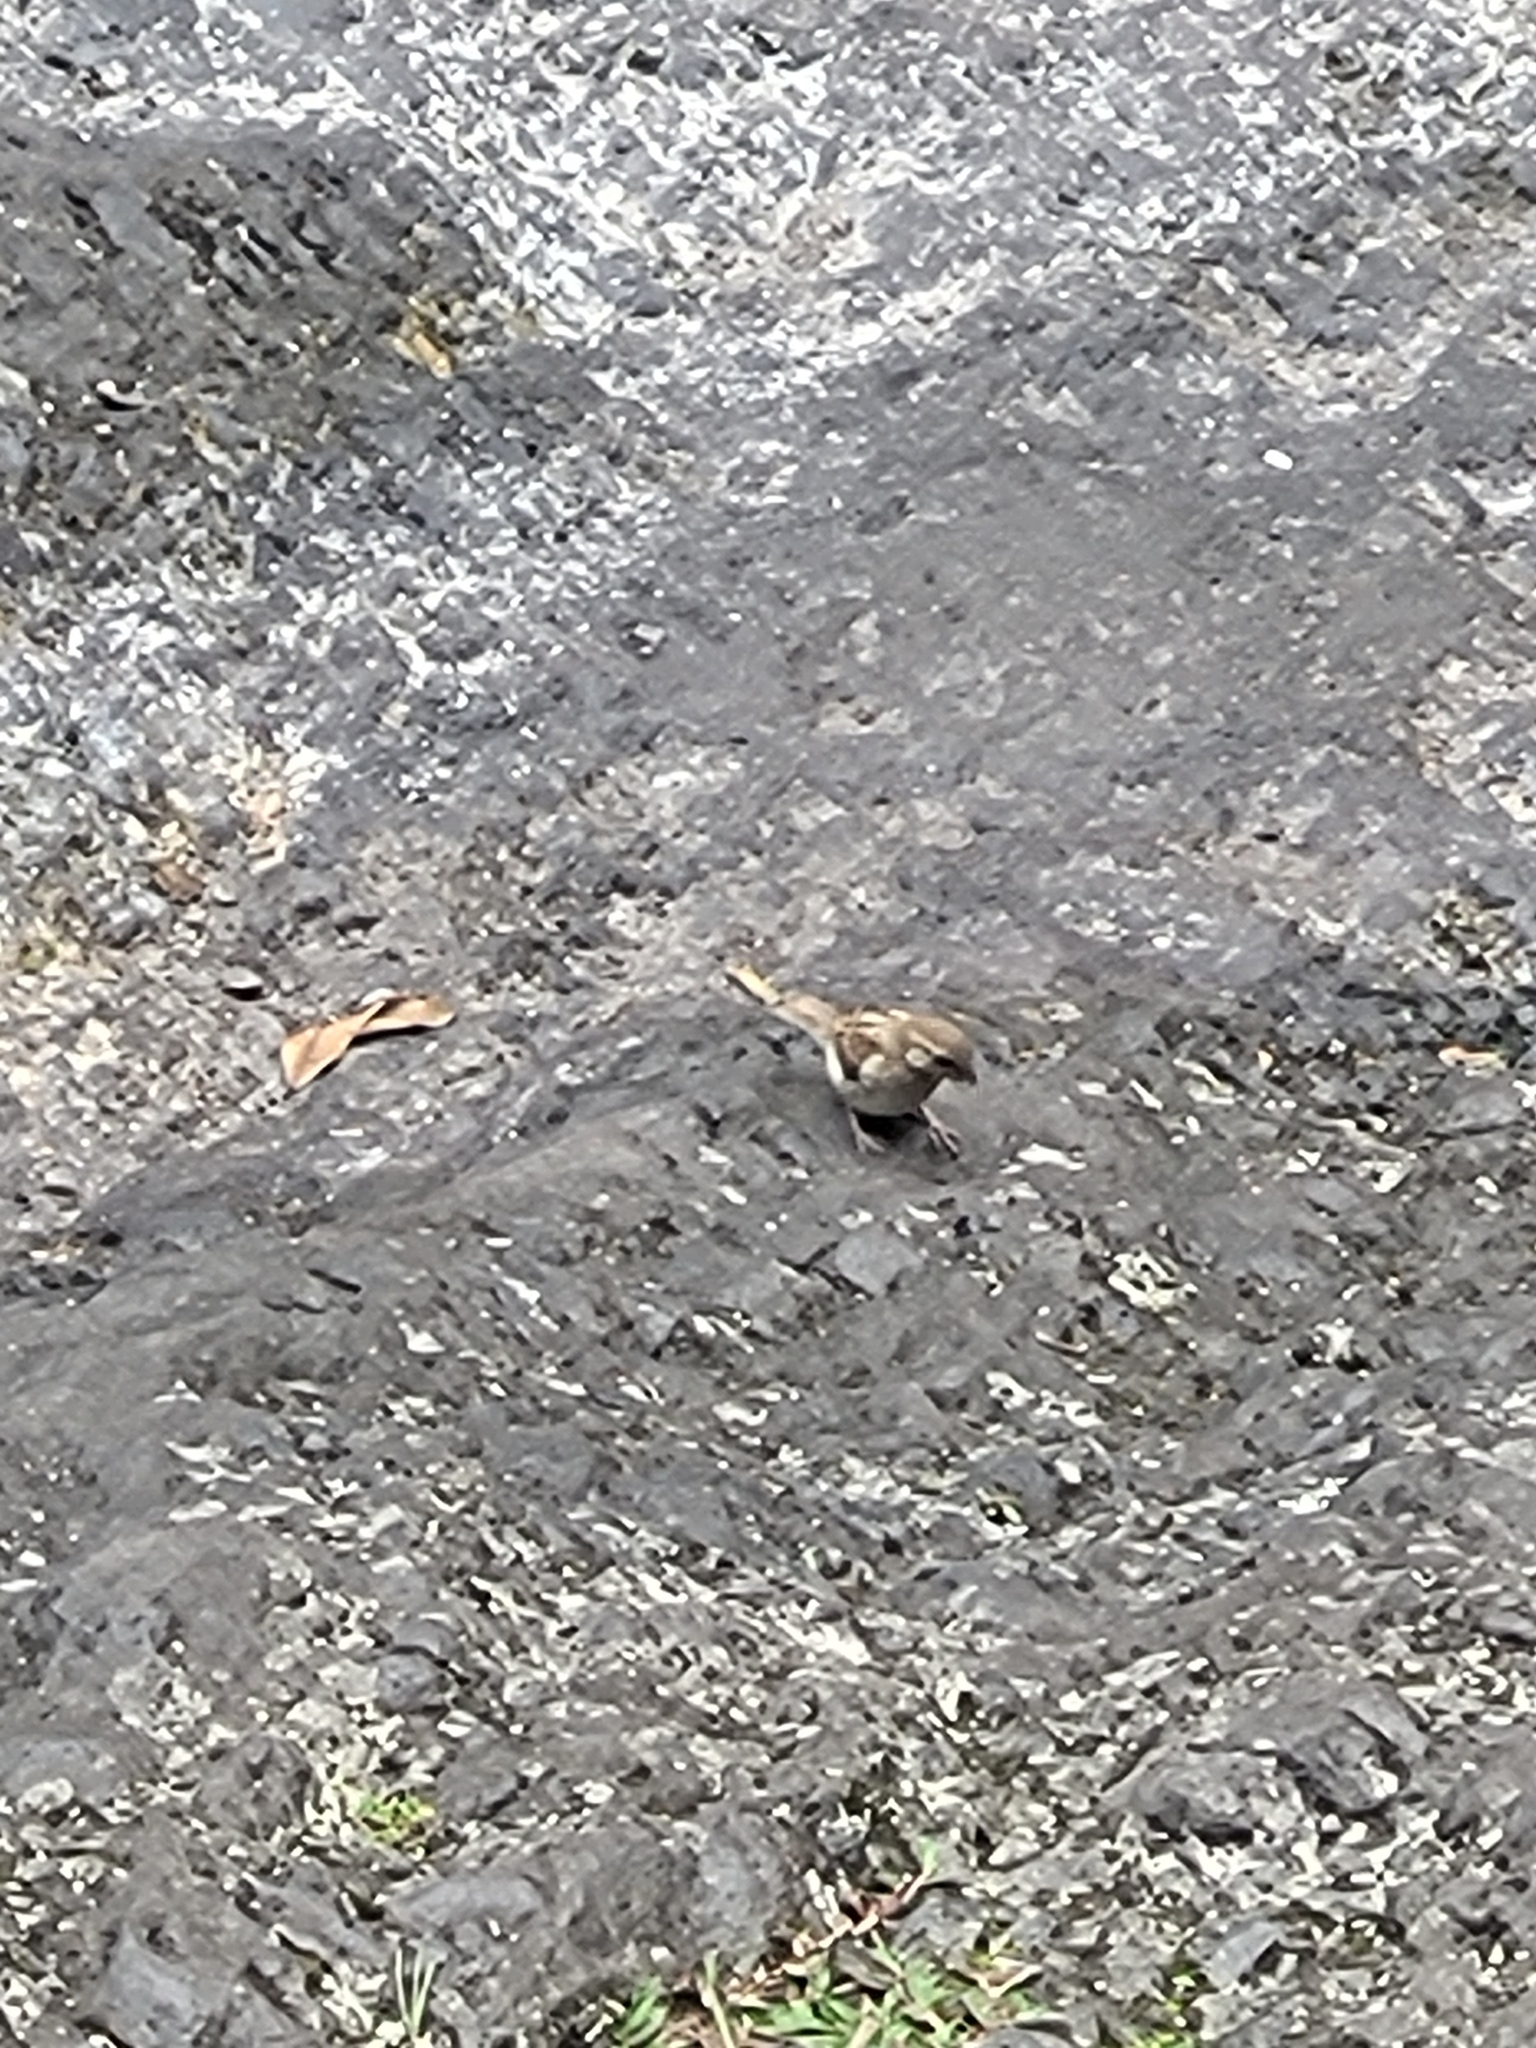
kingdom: Animalia
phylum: Chordata
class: Aves
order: Passeriformes
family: Passeridae
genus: Passer
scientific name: Passer domesticus
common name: House sparrow
